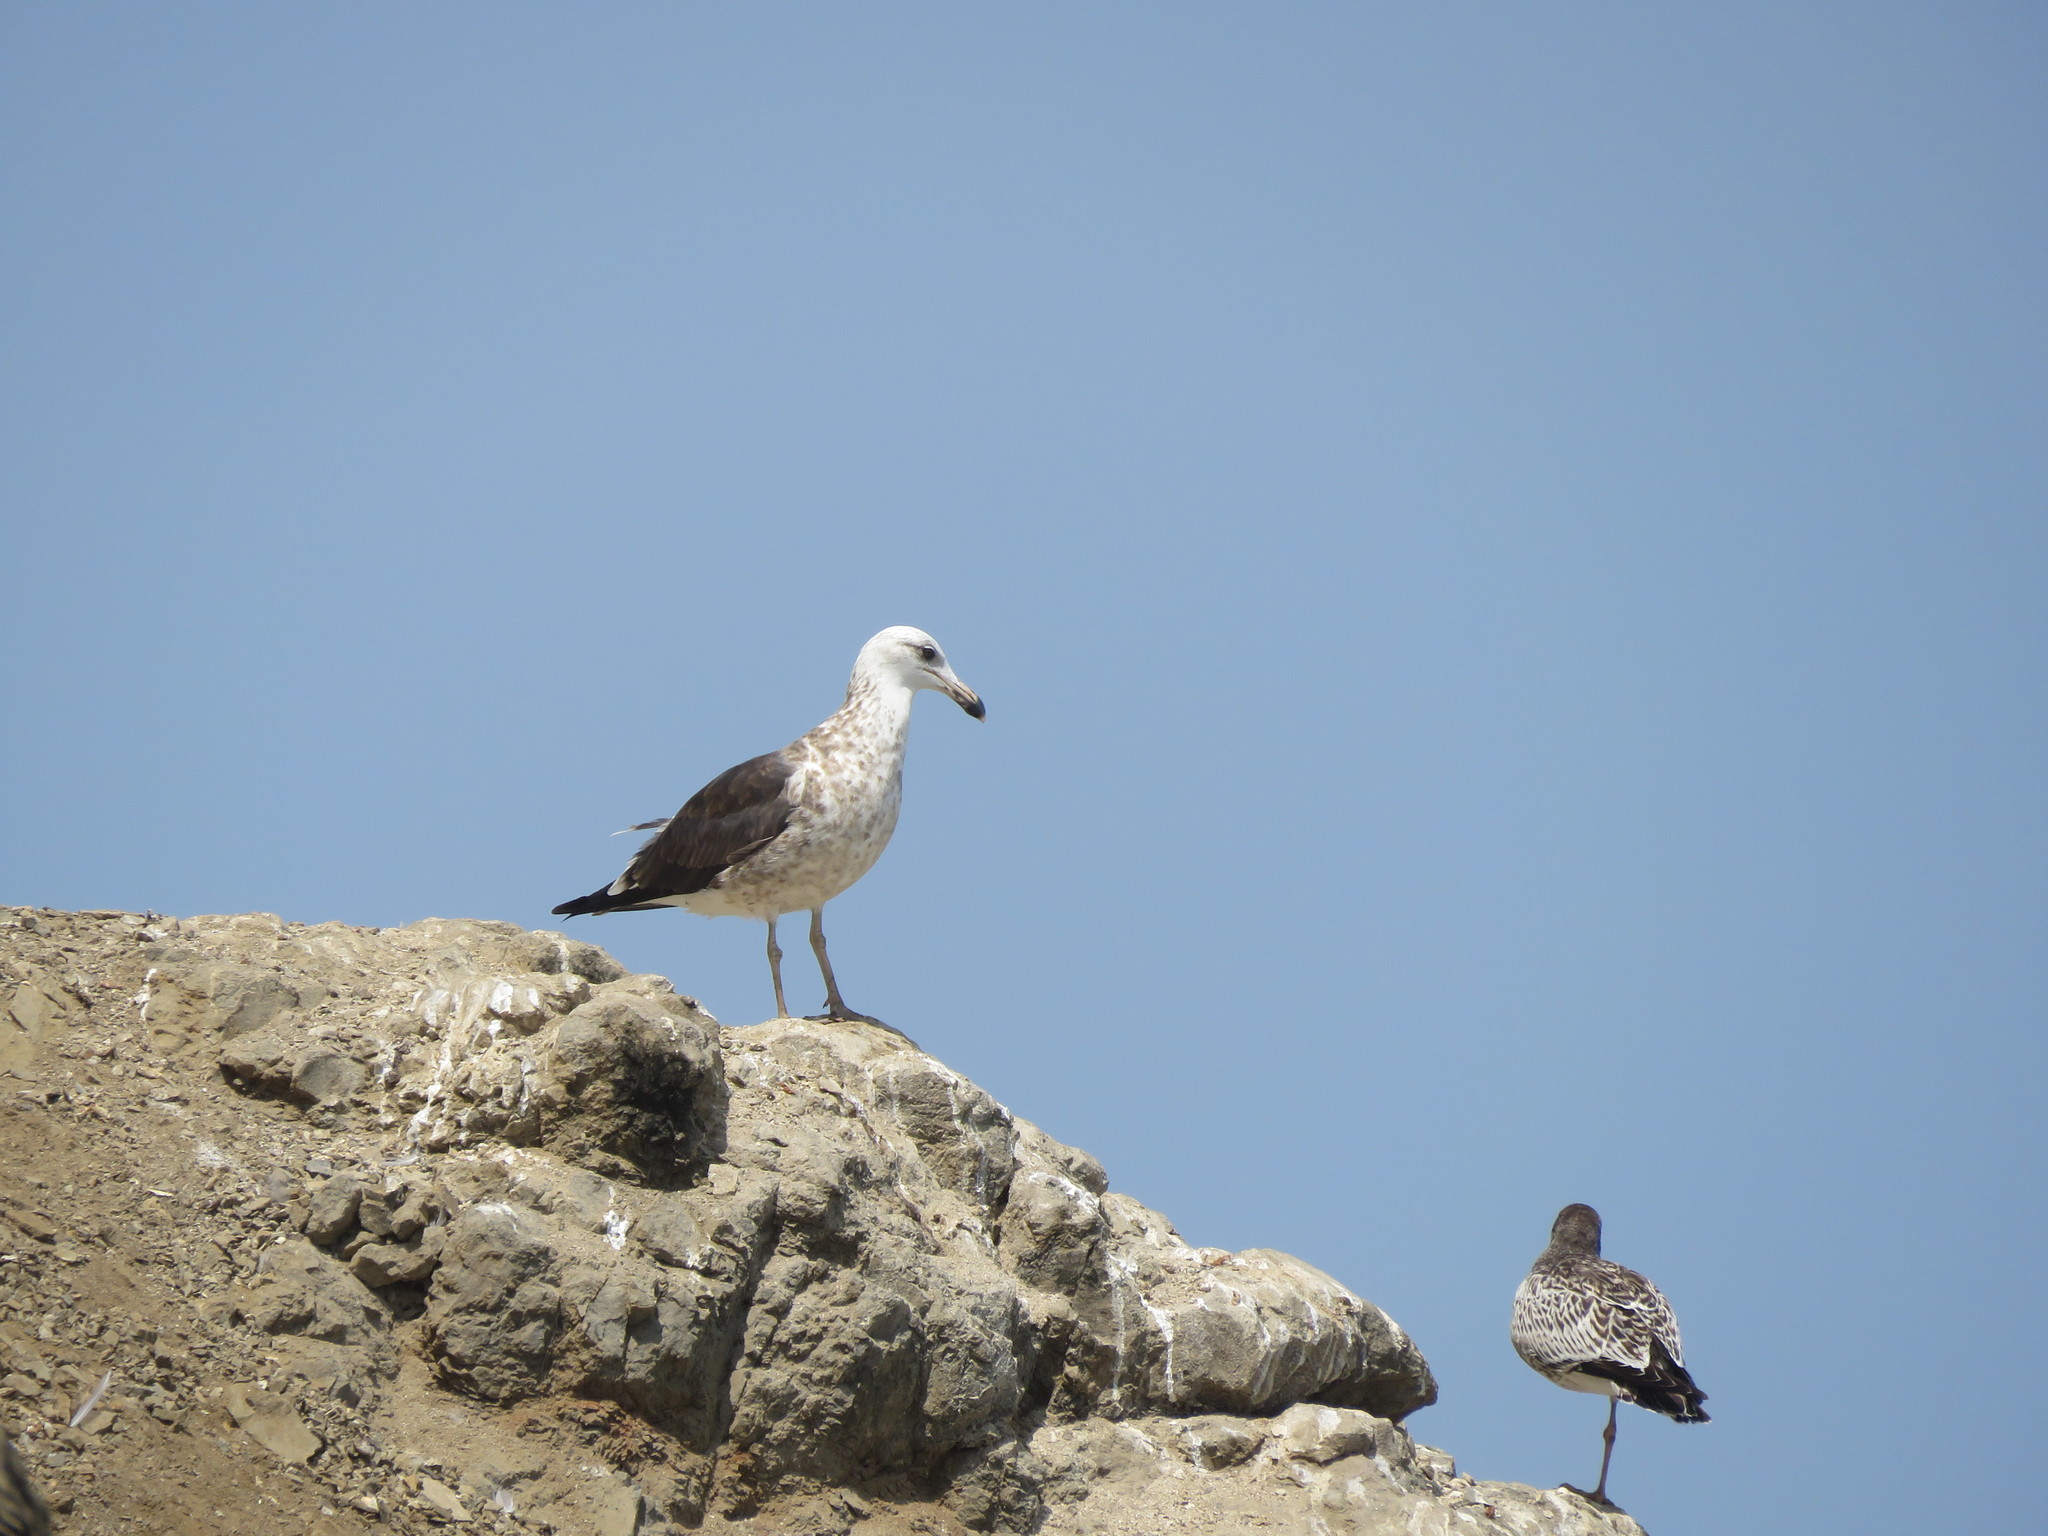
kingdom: Animalia
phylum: Chordata
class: Aves
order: Charadriiformes
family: Laridae
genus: Larus
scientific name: Larus dominicanus
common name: Kelp gull
